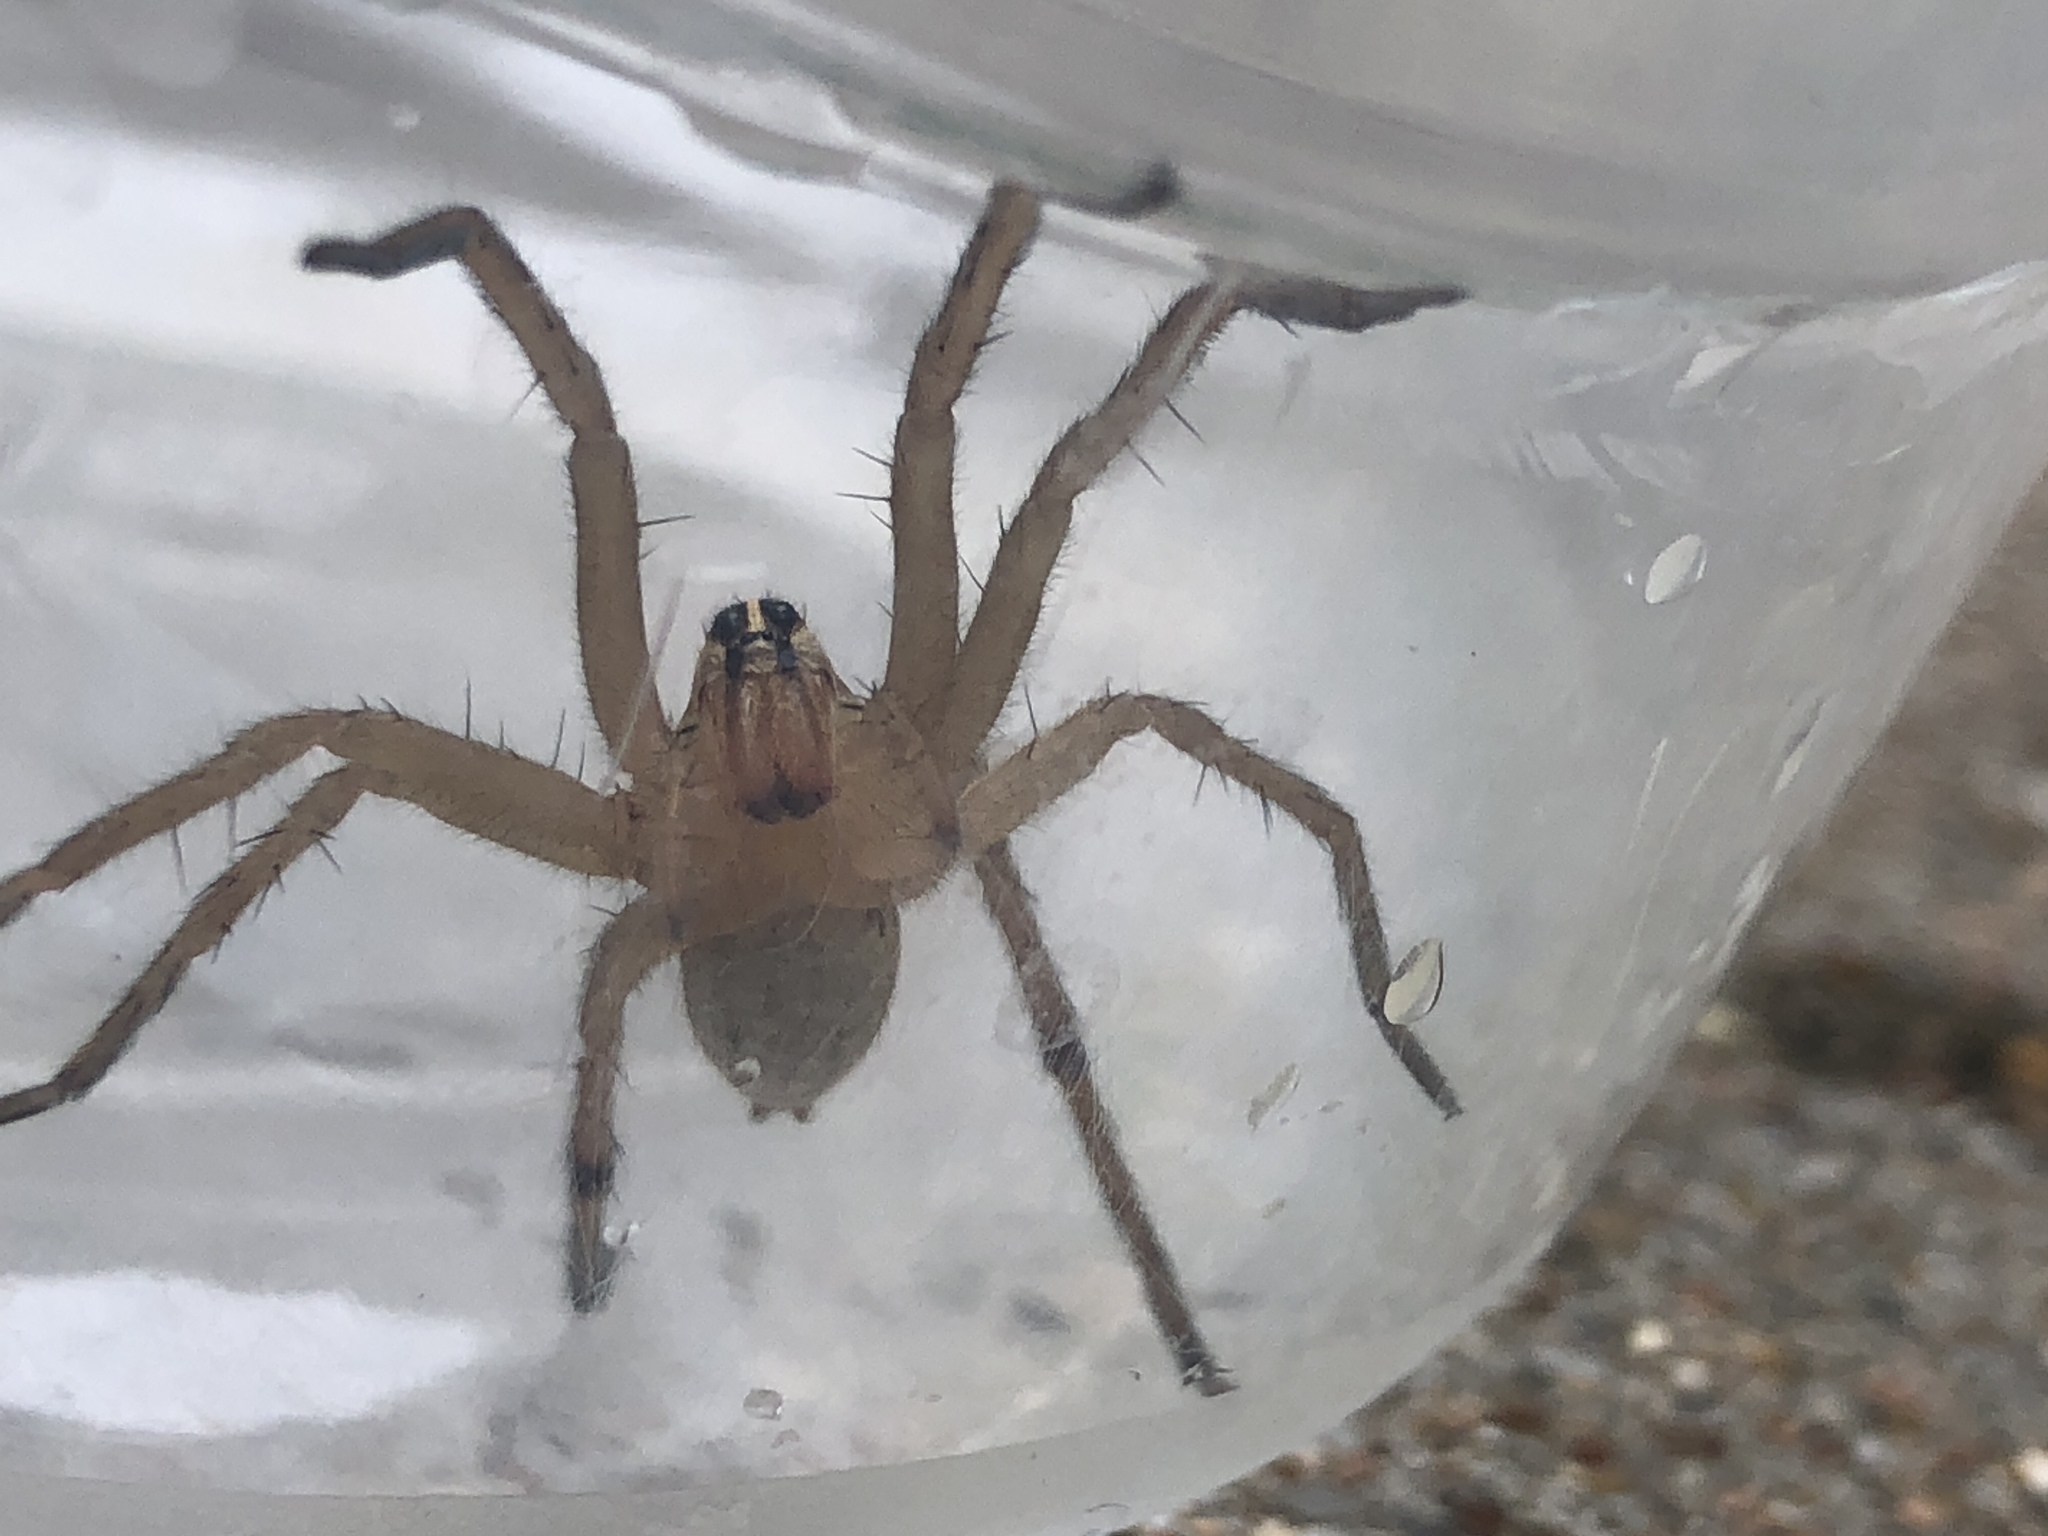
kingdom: Animalia
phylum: Arthropoda
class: Arachnida
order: Araneae
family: Lycosidae
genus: Rabidosa
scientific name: Rabidosa rabida
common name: Rabid wolf spider
